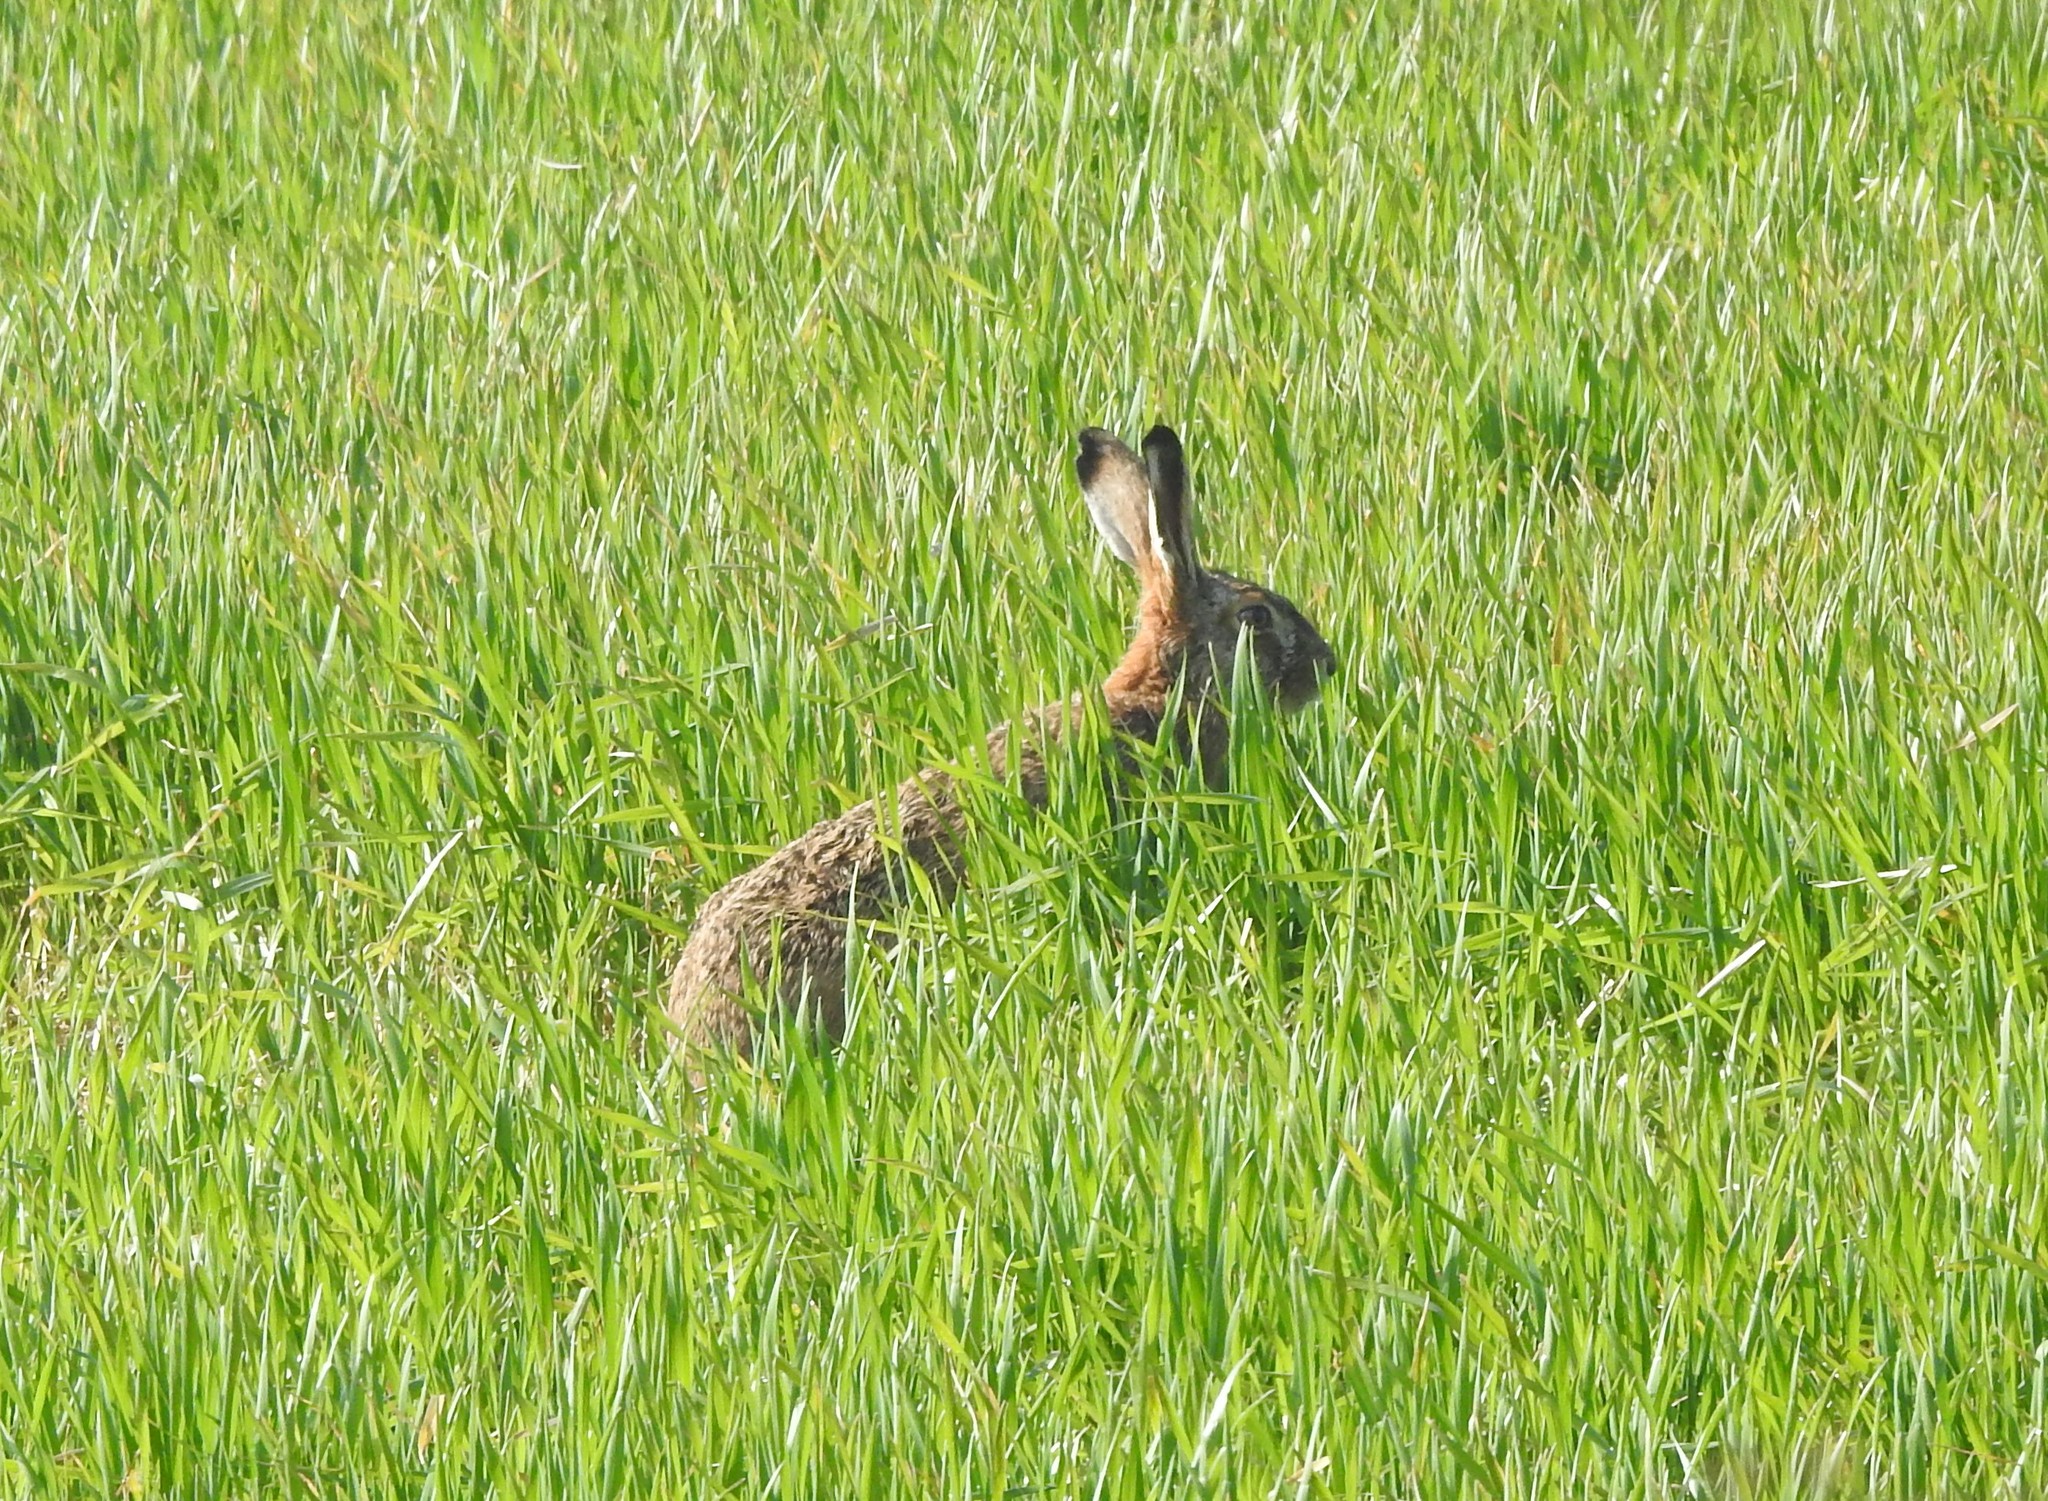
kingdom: Animalia
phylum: Chordata
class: Mammalia
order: Lagomorpha
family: Leporidae
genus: Lepus
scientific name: Lepus europaeus
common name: European hare
